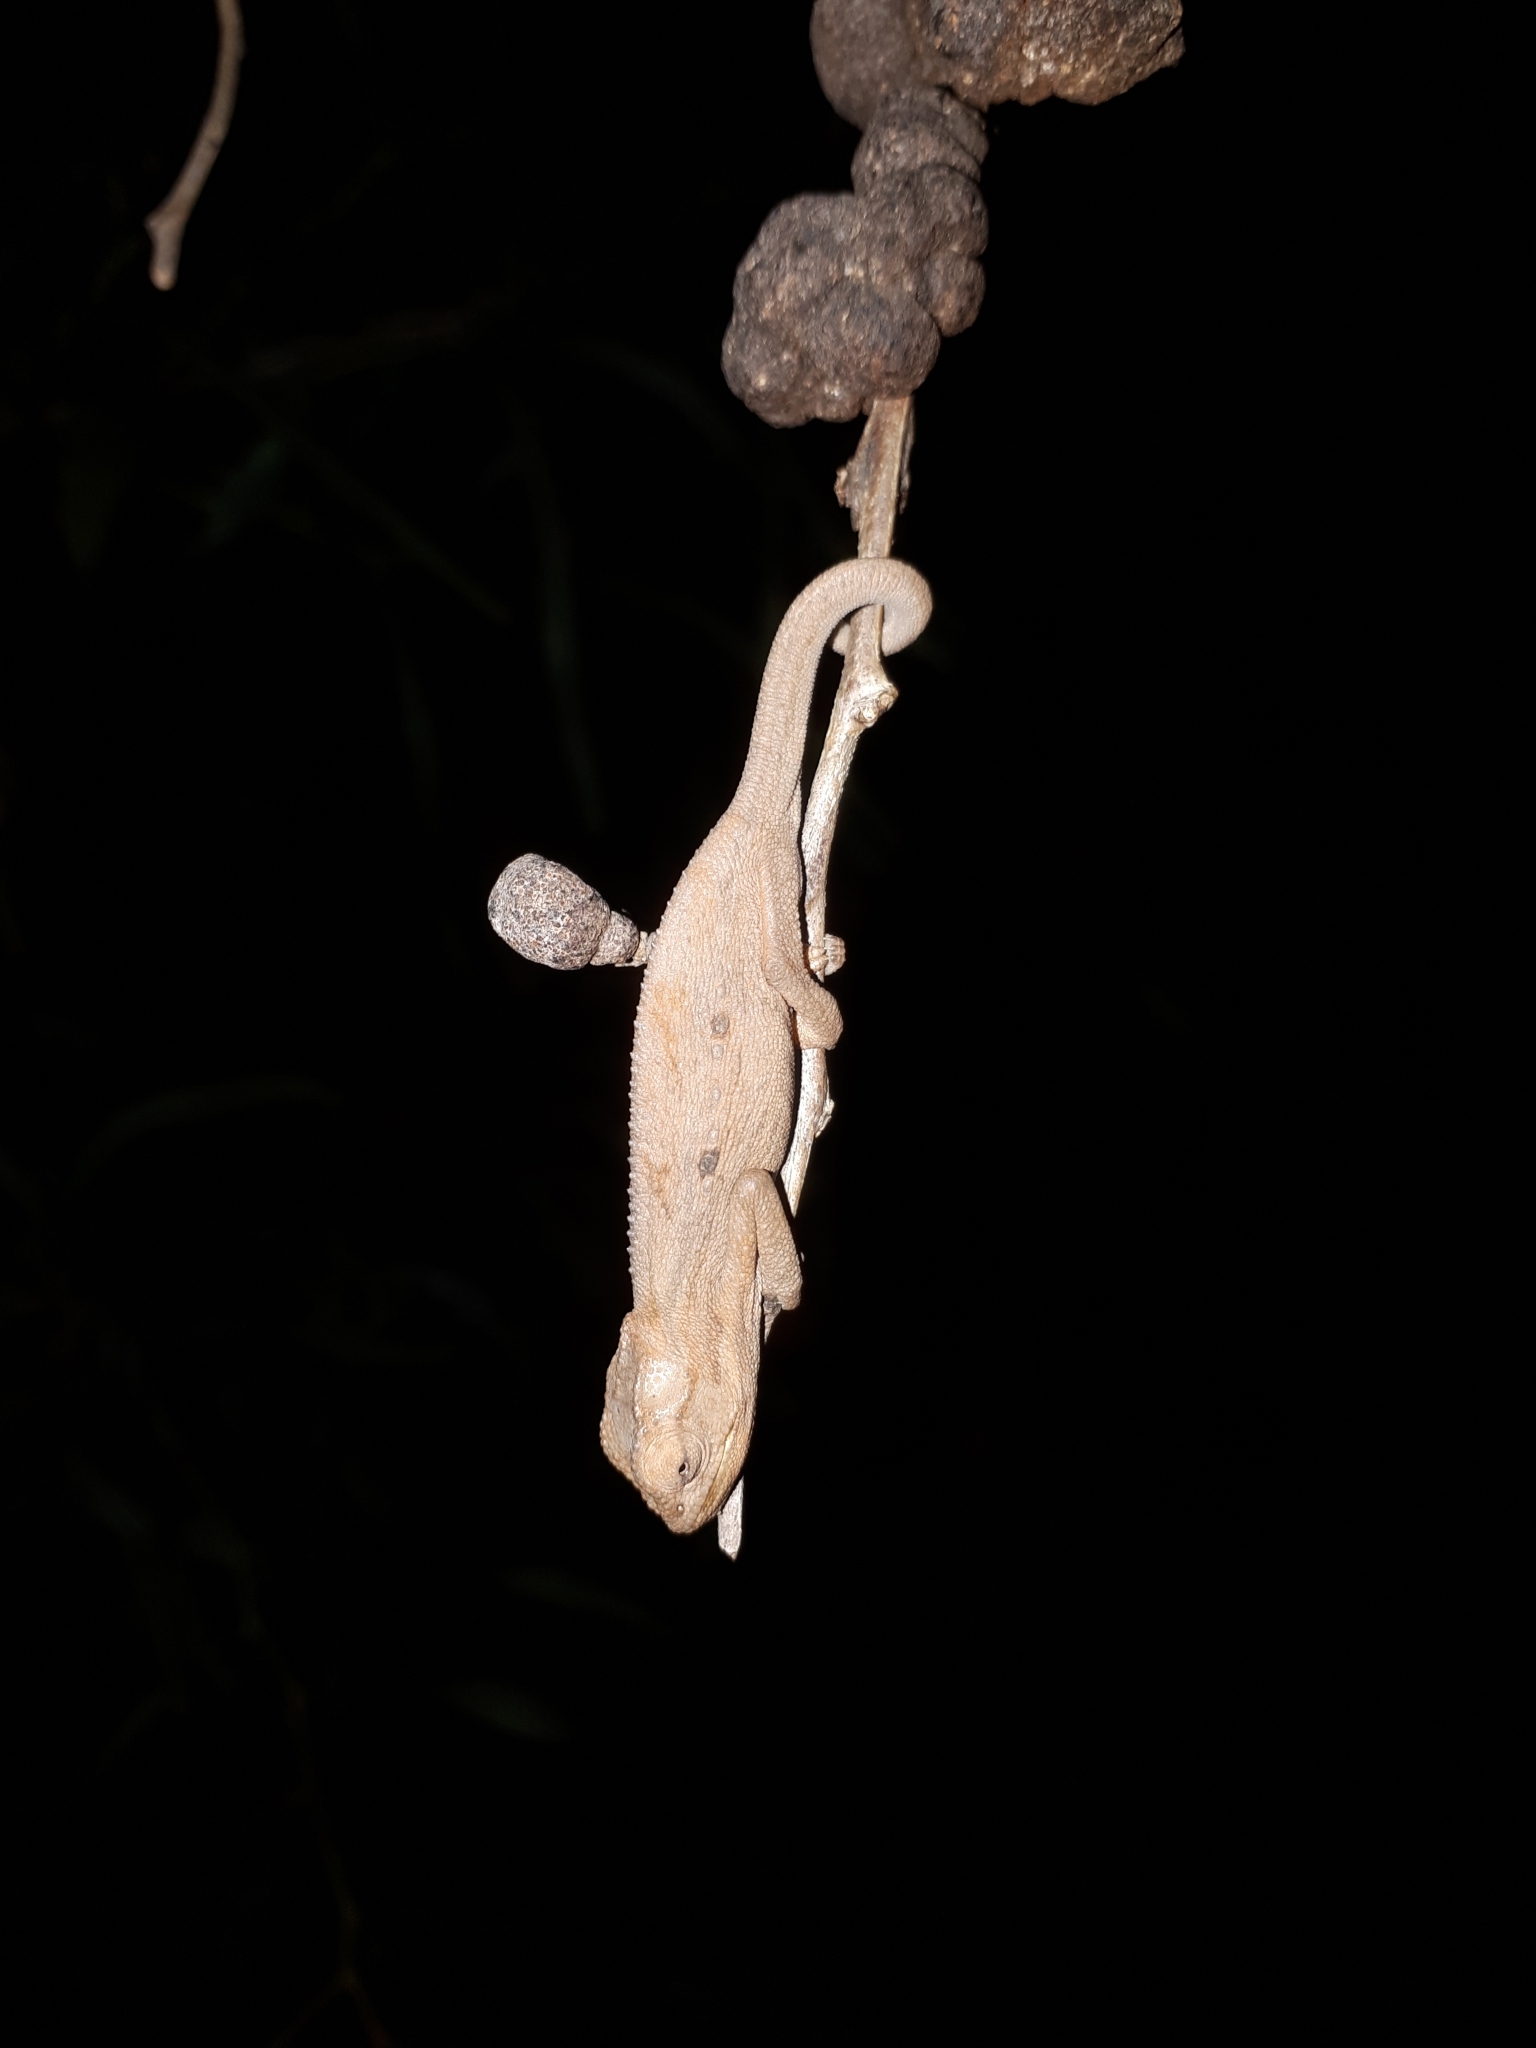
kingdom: Animalia
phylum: Chordata
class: Squamata
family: Chamaeleonidae
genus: Bradypodion
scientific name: Bradypodion pumilum
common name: Cape dwarf chameleon
